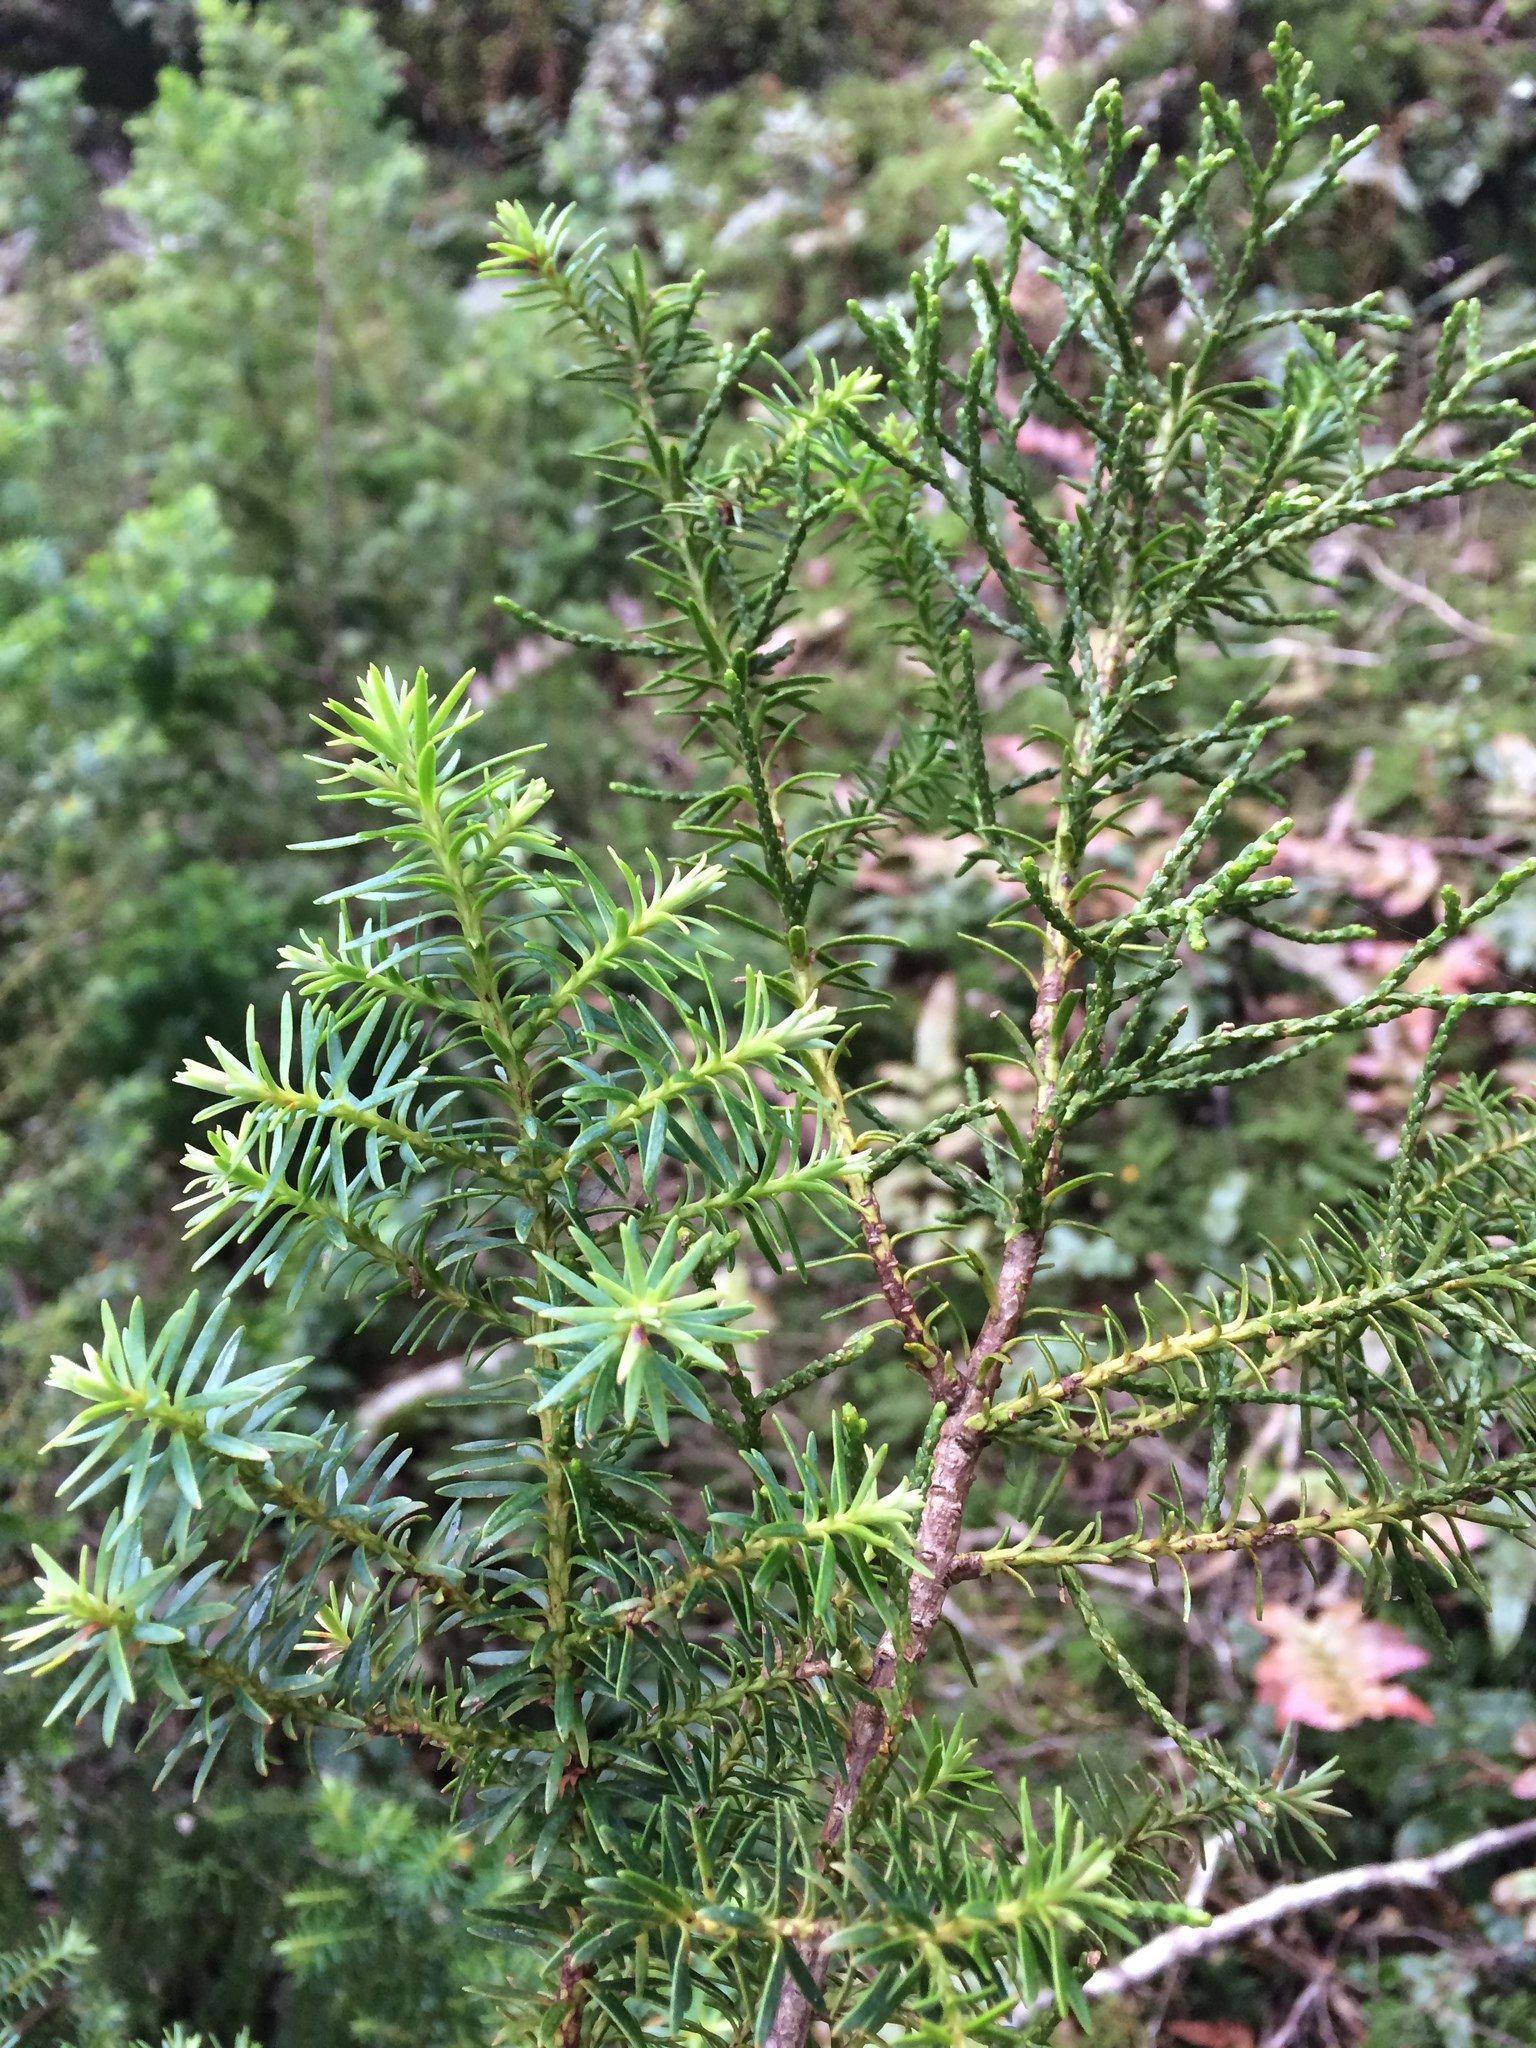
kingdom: Plantae
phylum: Tracheophyta
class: Pinopsida
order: Pinales
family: Podocarpaceae
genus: Halocarpus
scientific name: Halocarpus biformis
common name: Alpine tarwood
